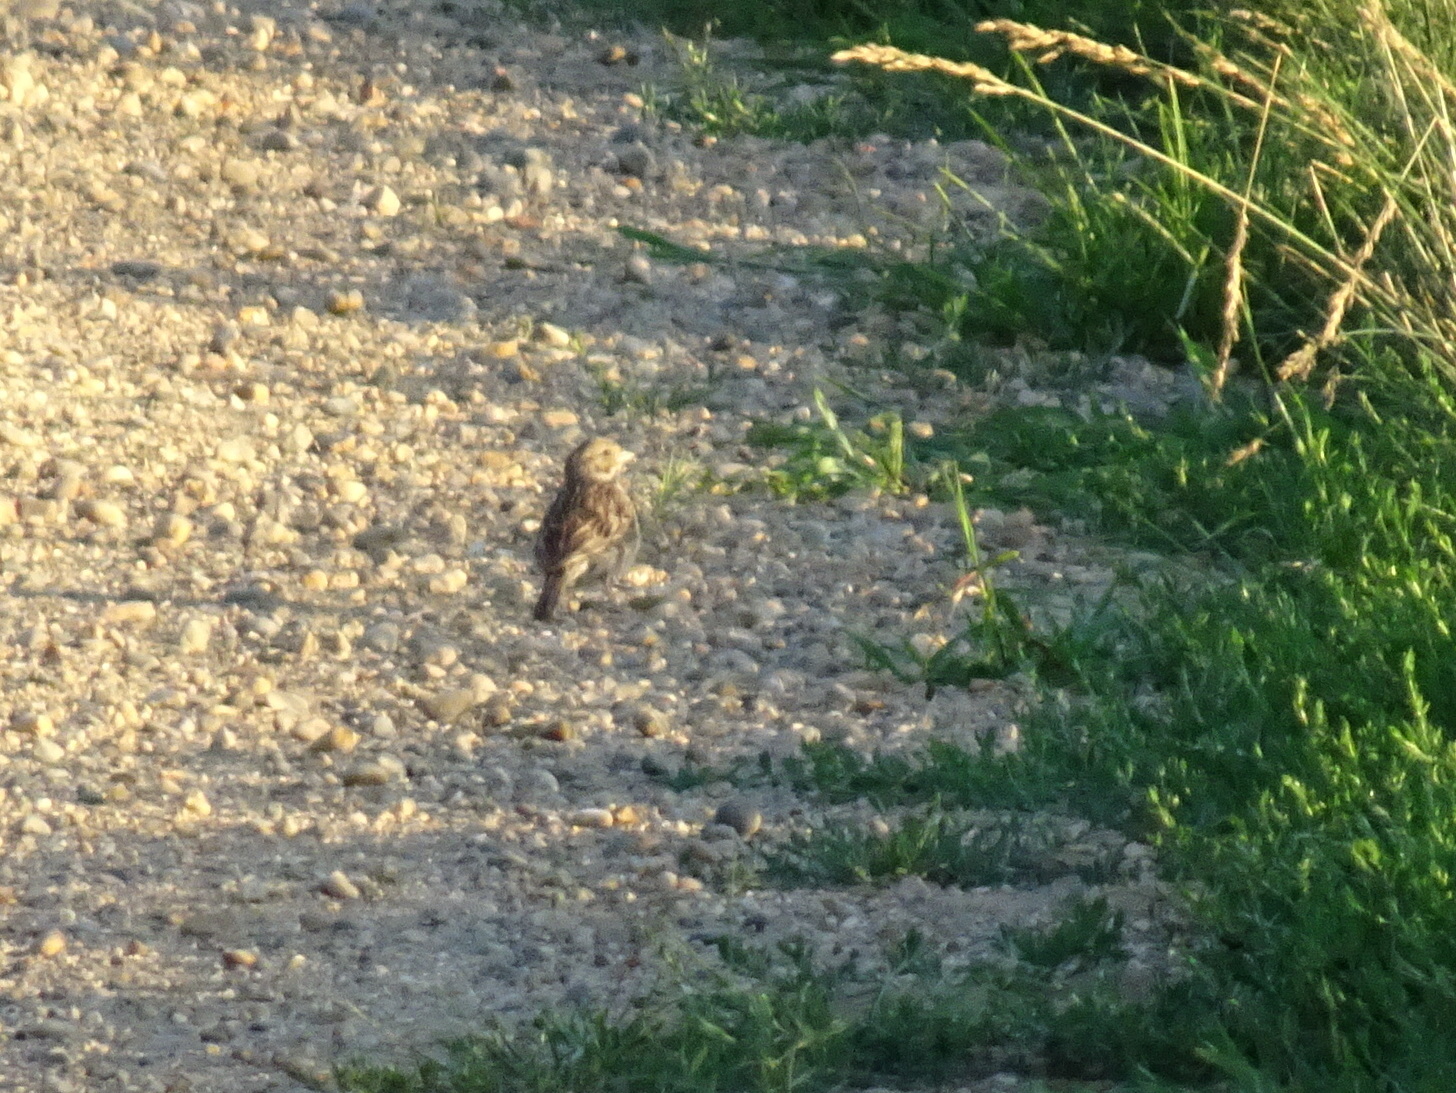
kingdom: Animalia
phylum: Chordata
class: Aves
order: Passeriformes
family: Passerellidae
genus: Pooecetes
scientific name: Pooecetes gramineus
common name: Vesper sparrow
